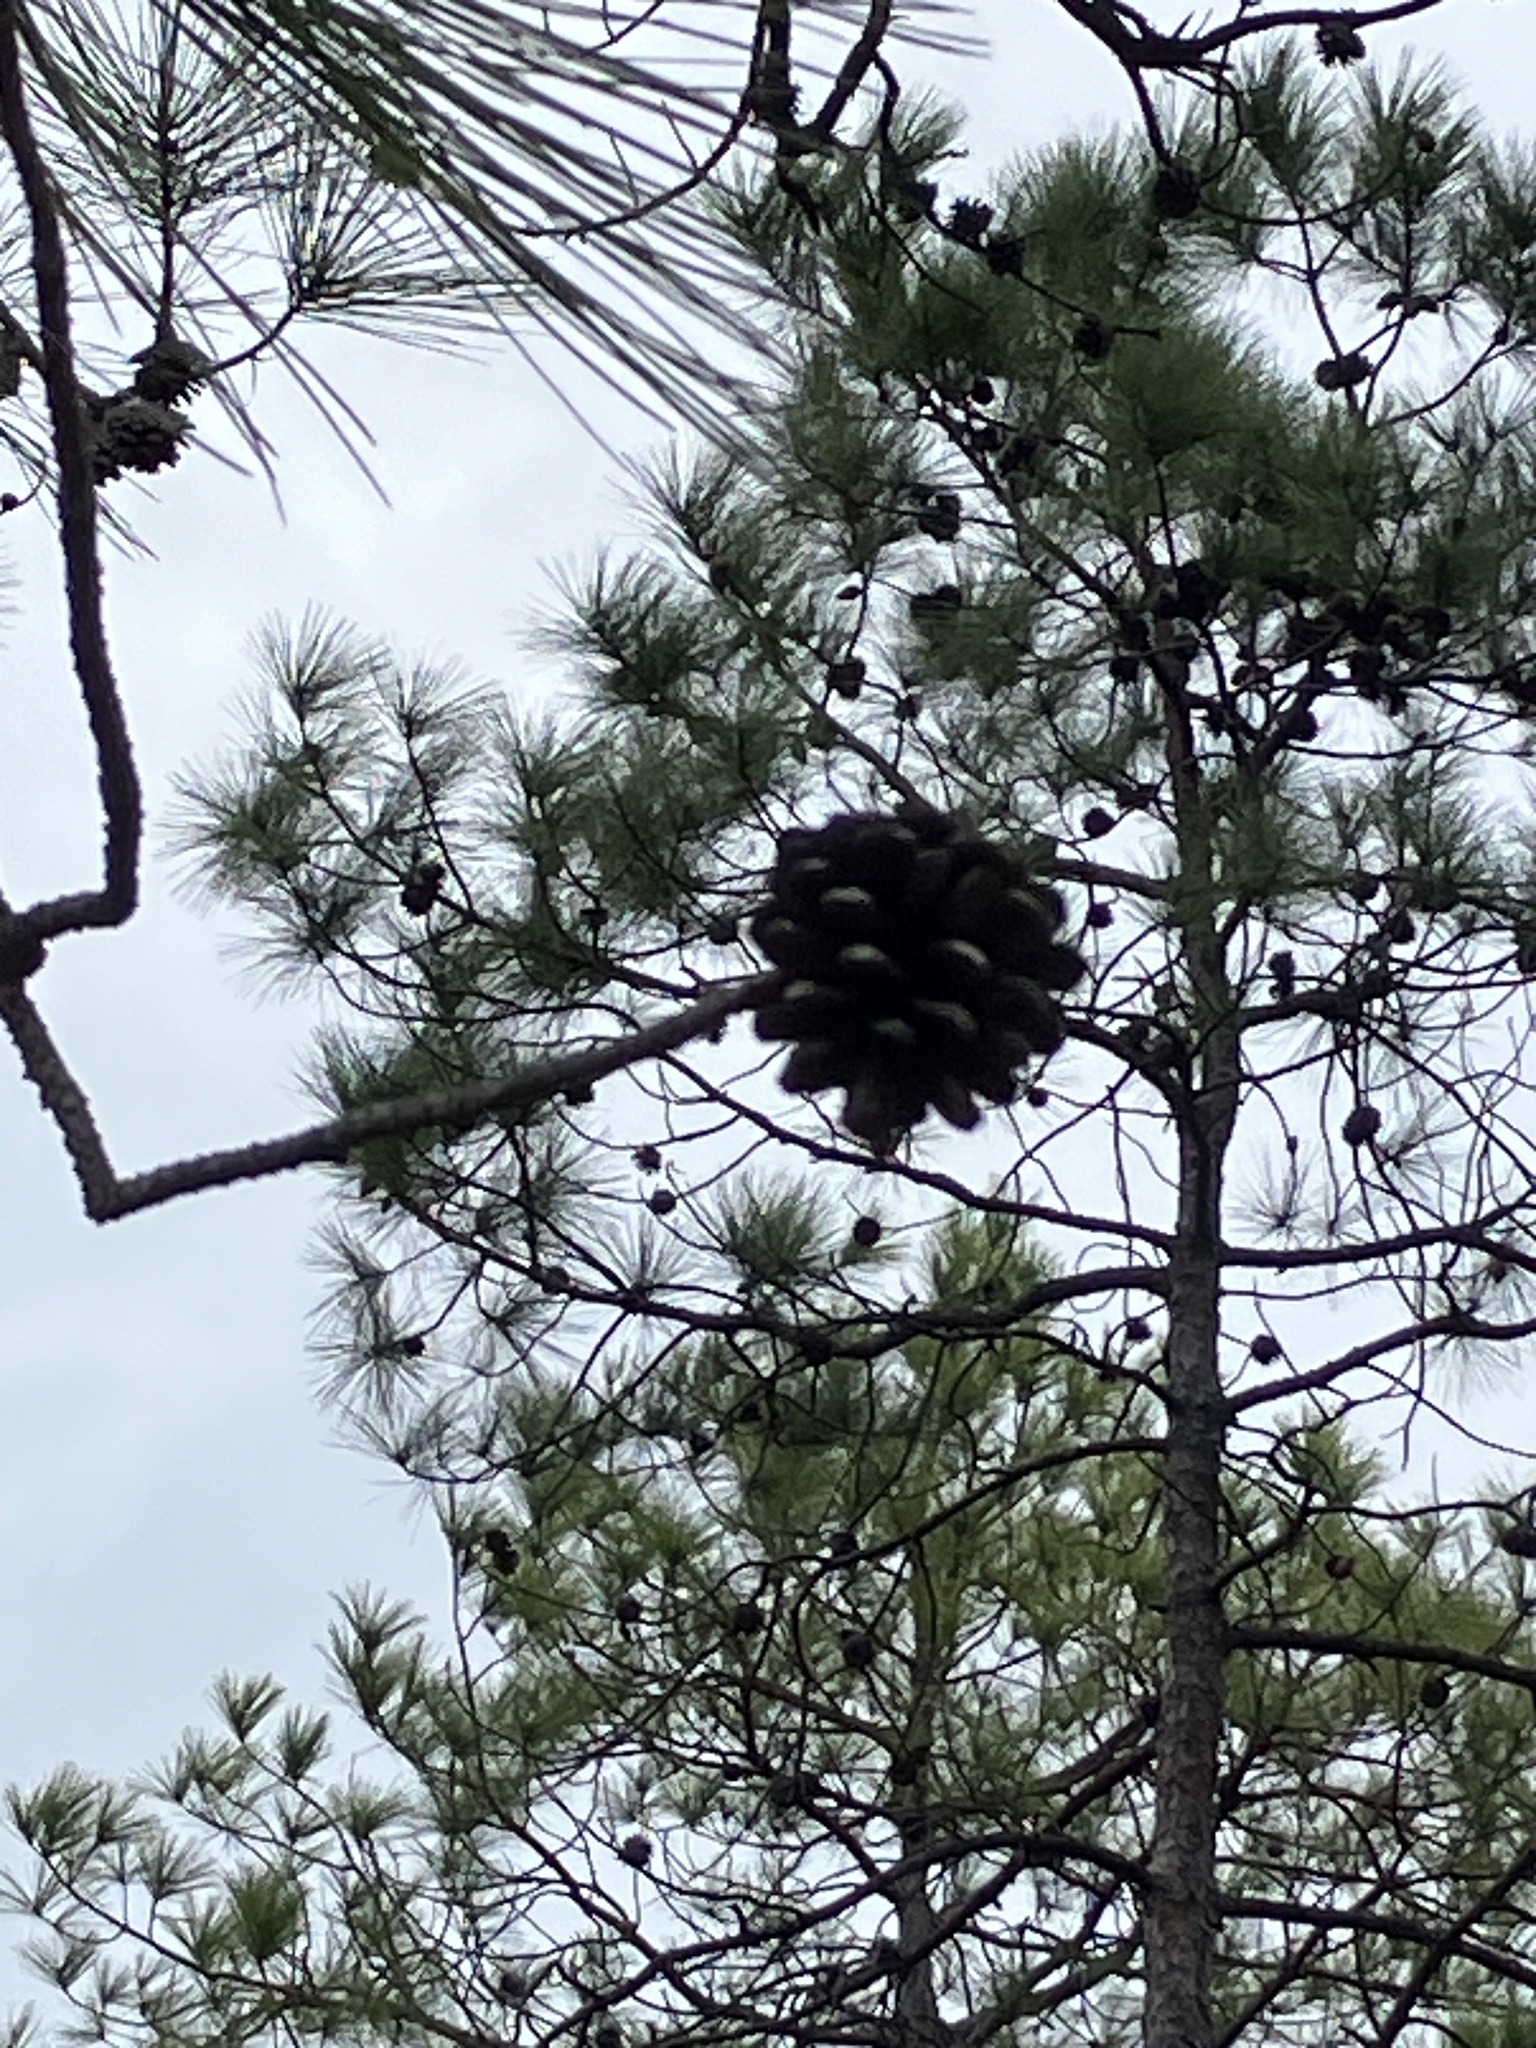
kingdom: Plantae
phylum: Tracheophyta
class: Pinopsida
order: Pinales
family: Pinaceae
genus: Pinus
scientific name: Pinus serotina
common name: Marsh pine
